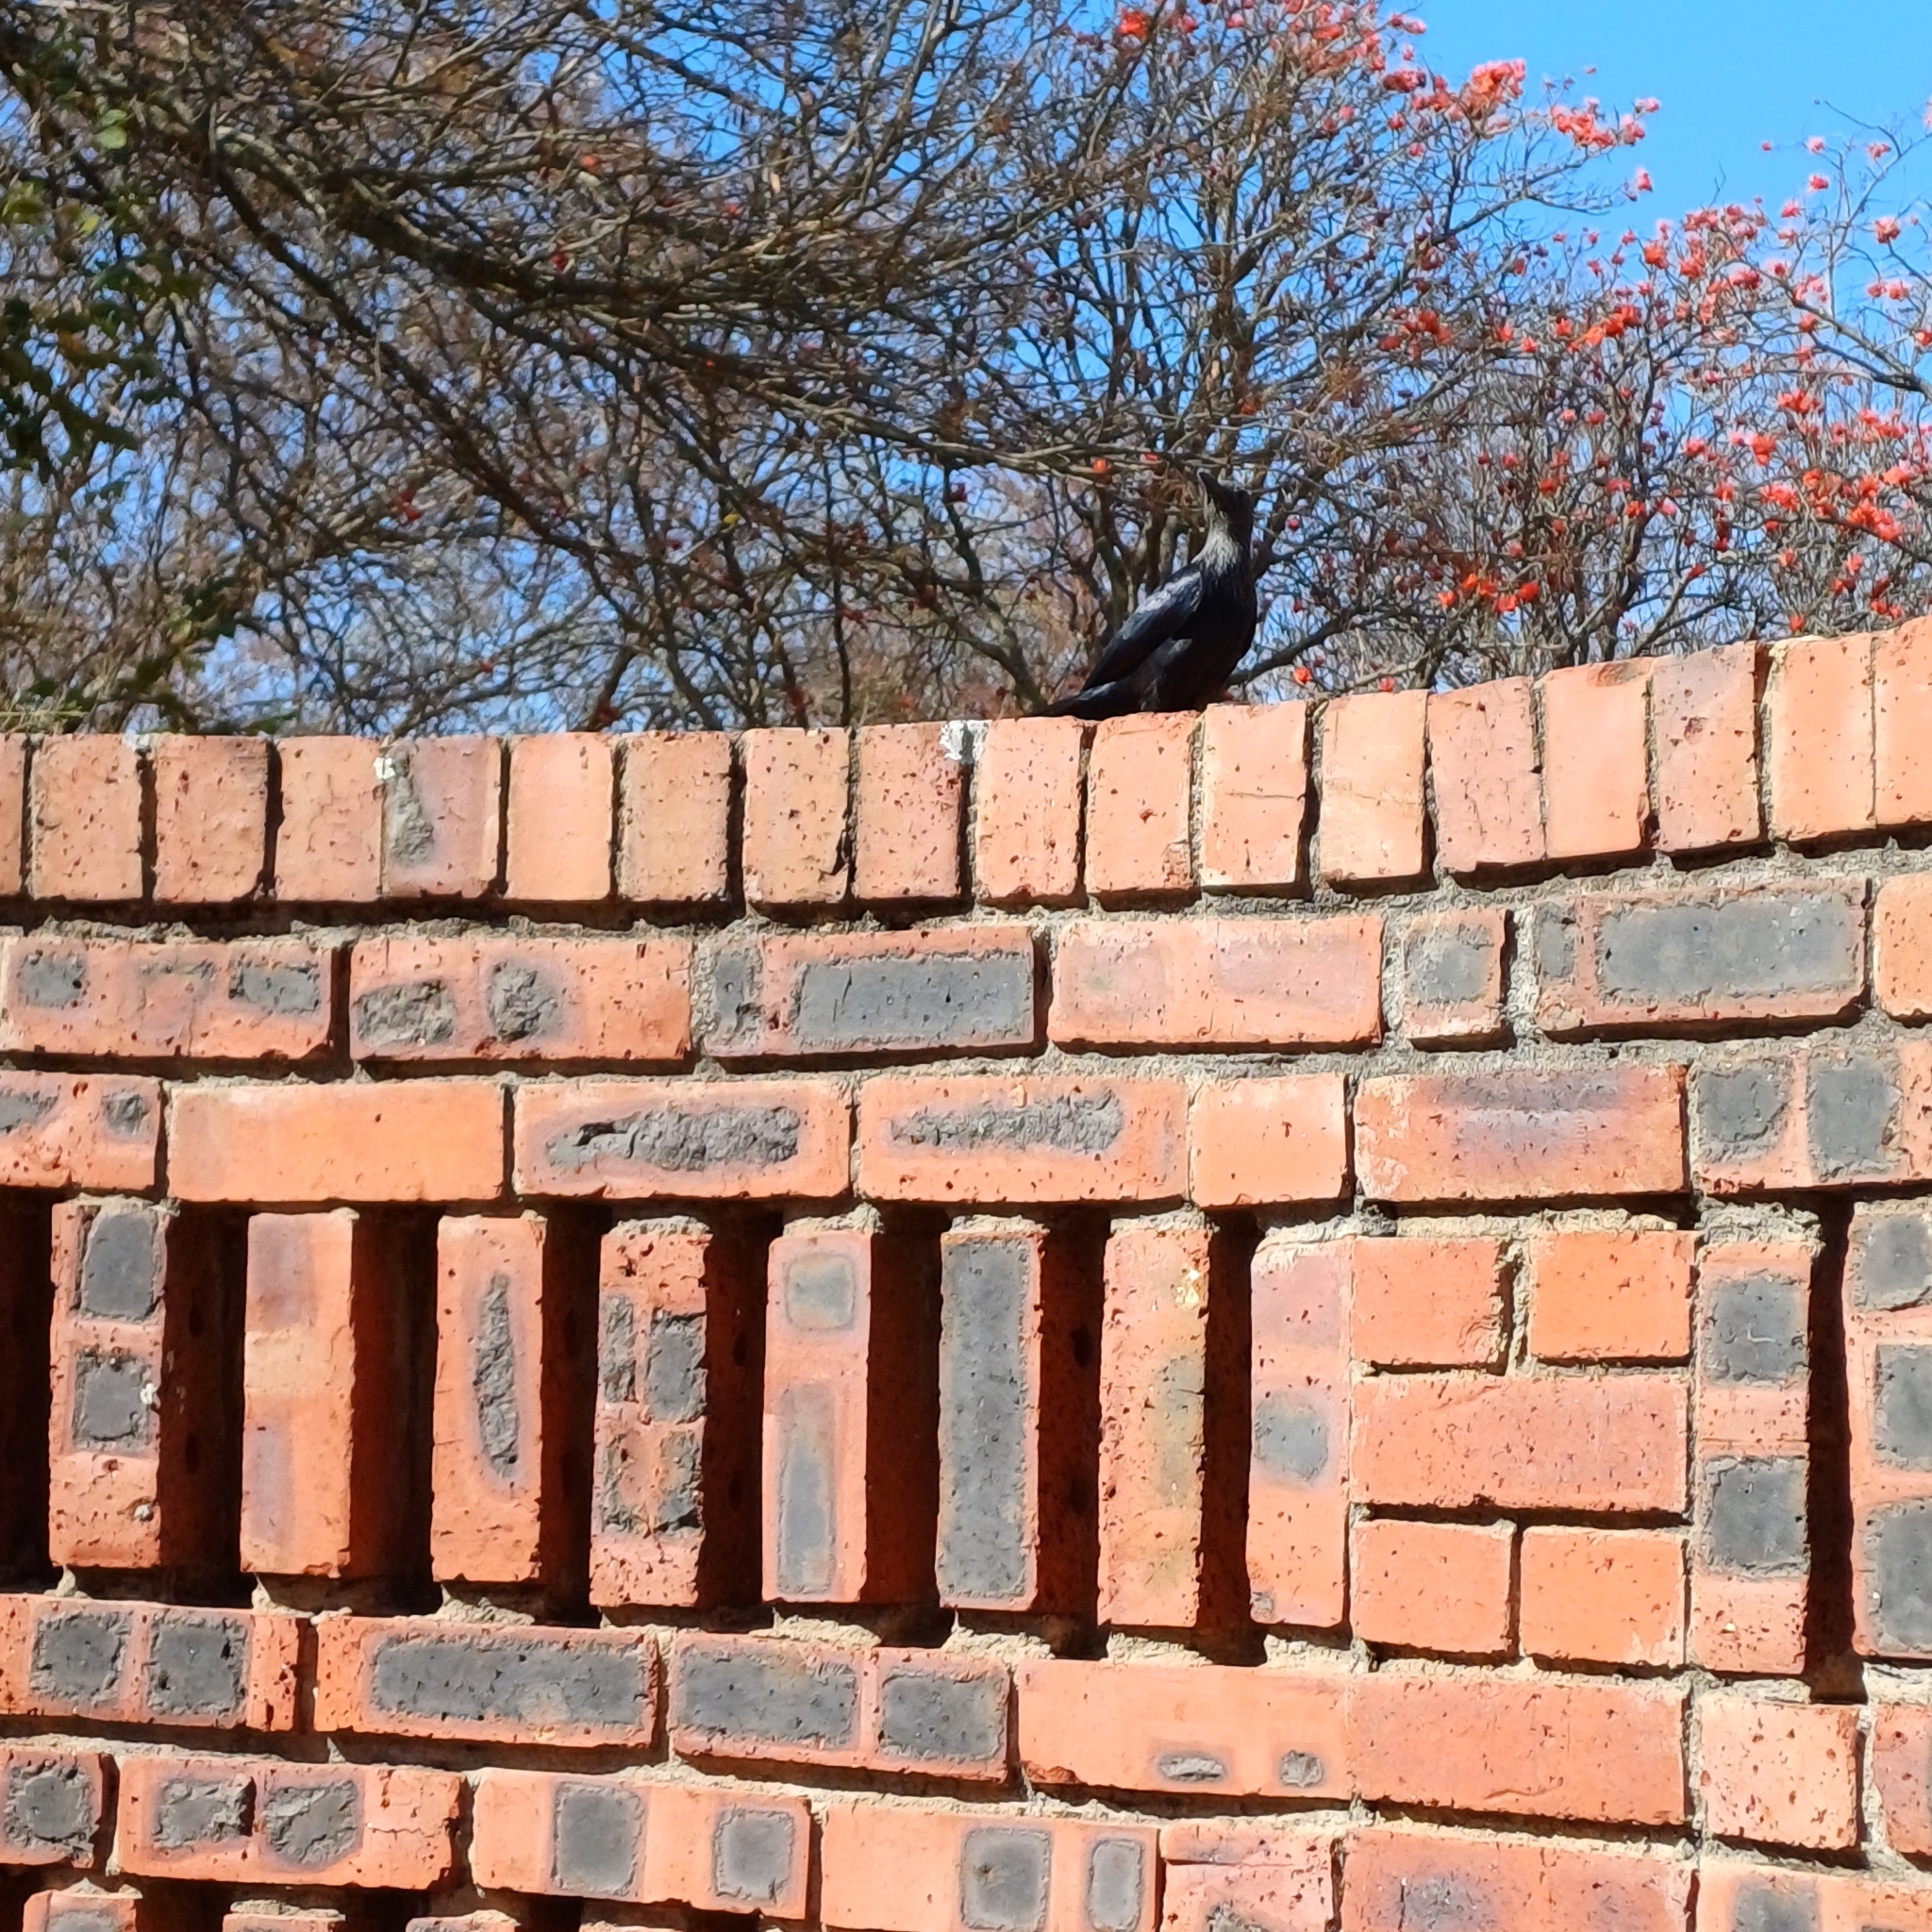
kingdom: Animalia
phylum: Chordata
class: Aves
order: Passeriformes
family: Sturnidae
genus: Onychognathus
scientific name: Onychognathus morio
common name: Red-winged starling
